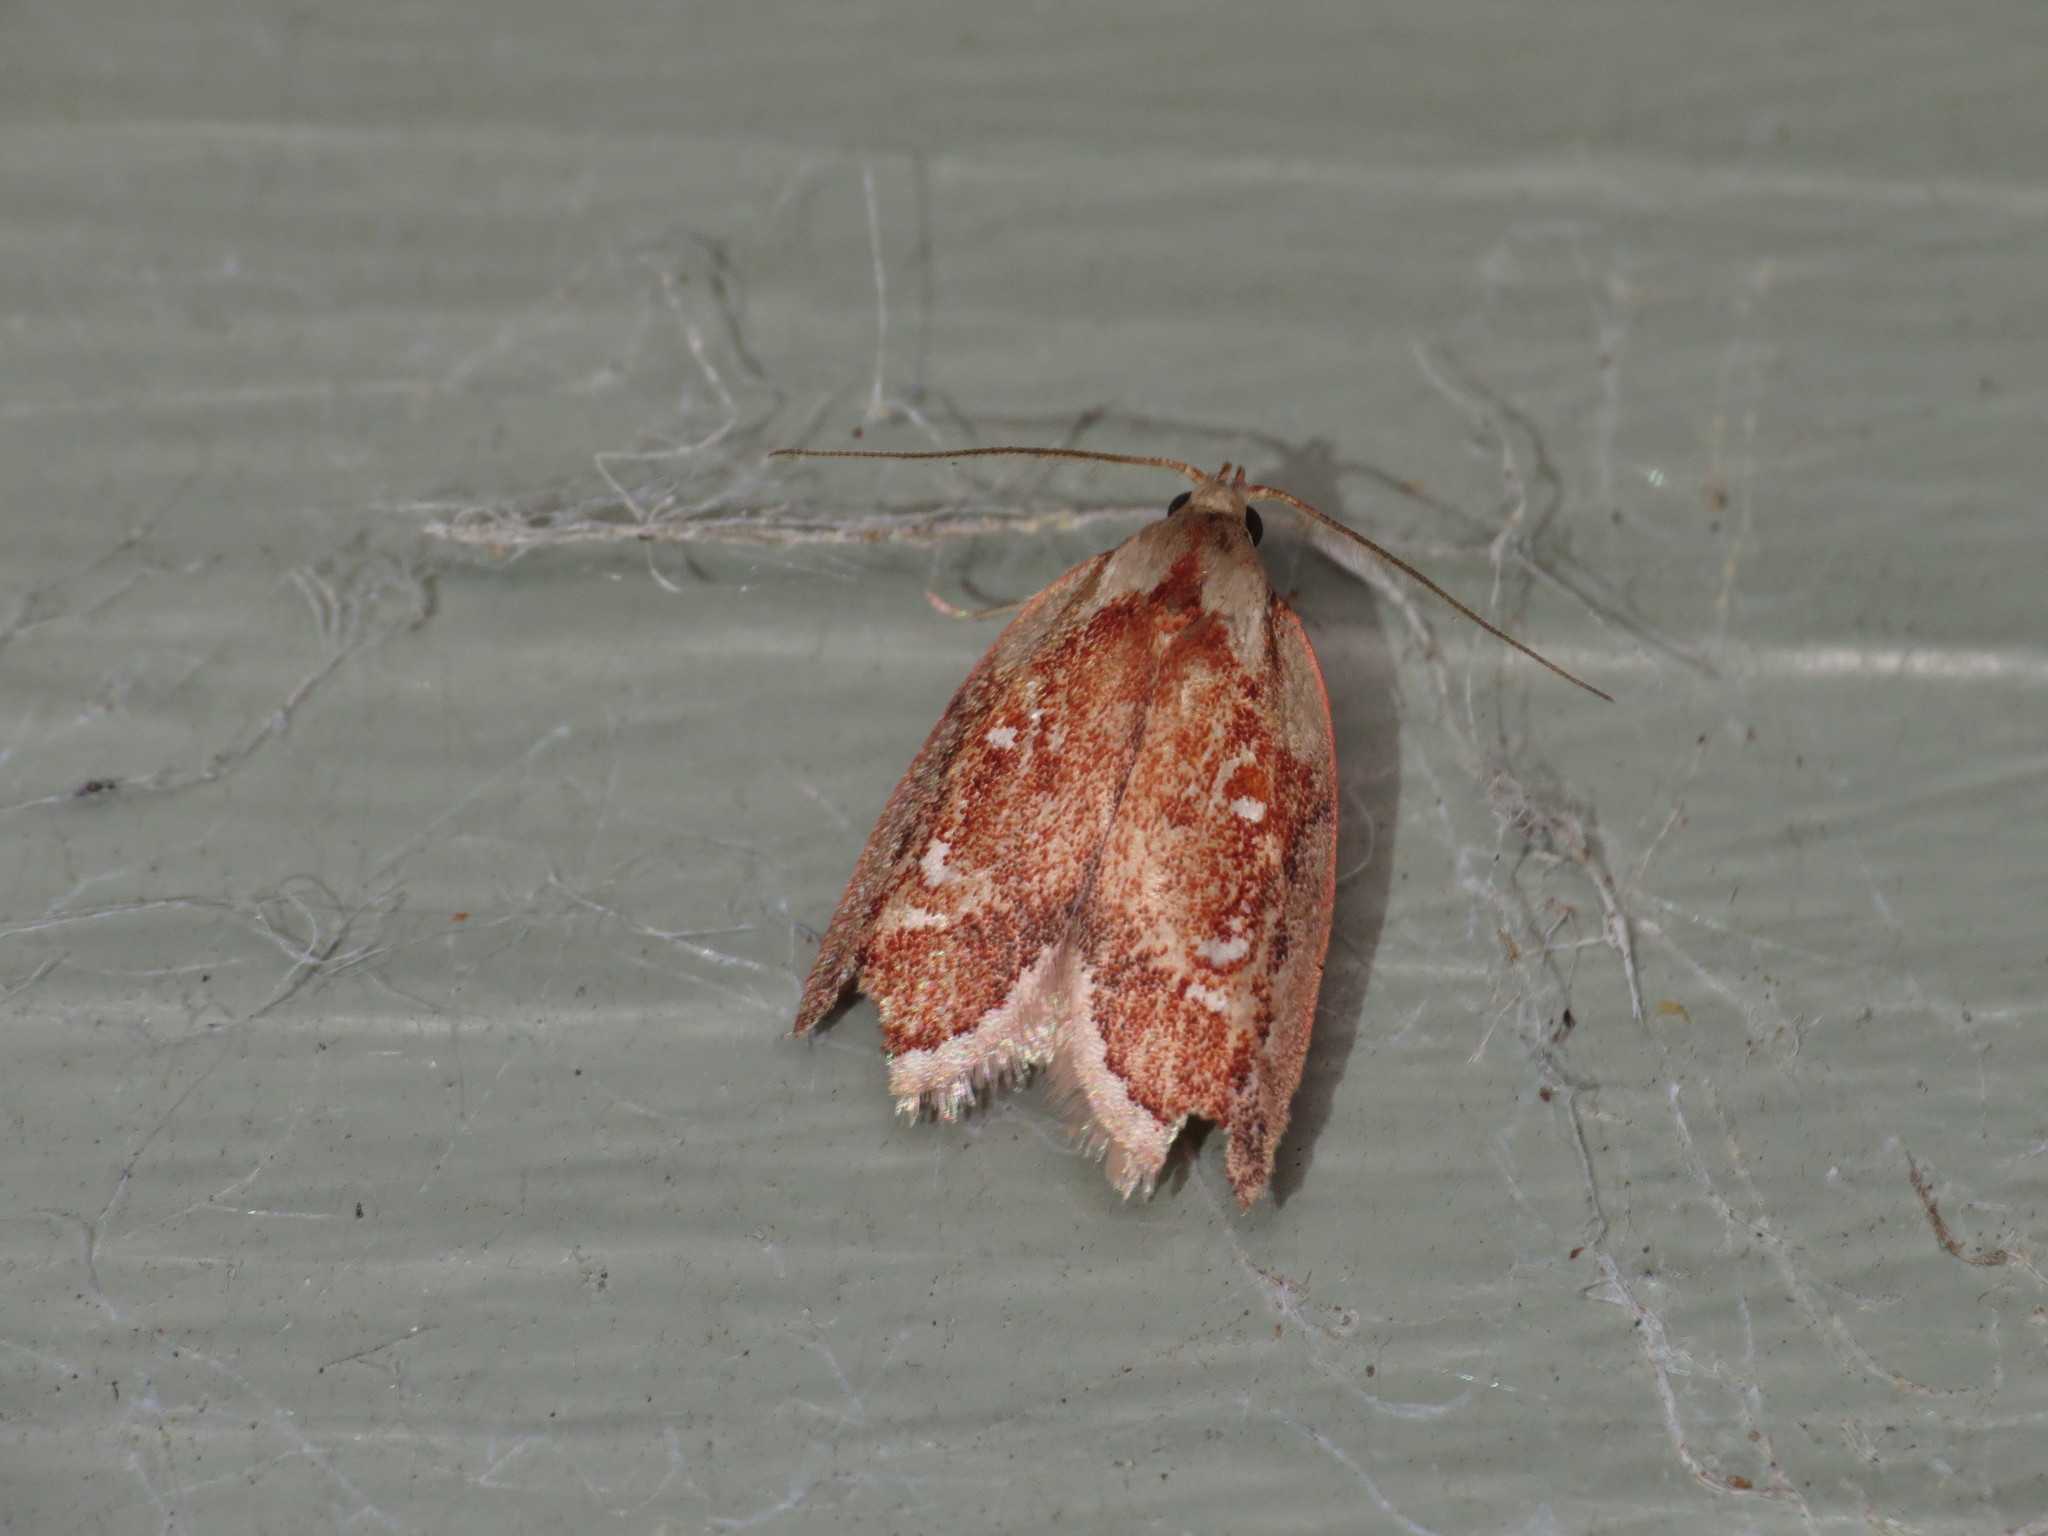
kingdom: Animalia
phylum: Arthropoda
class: Insecta
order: Lepidoptera
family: Oecophoridae
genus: Euchaetis
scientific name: Euchaetis habrocosma
